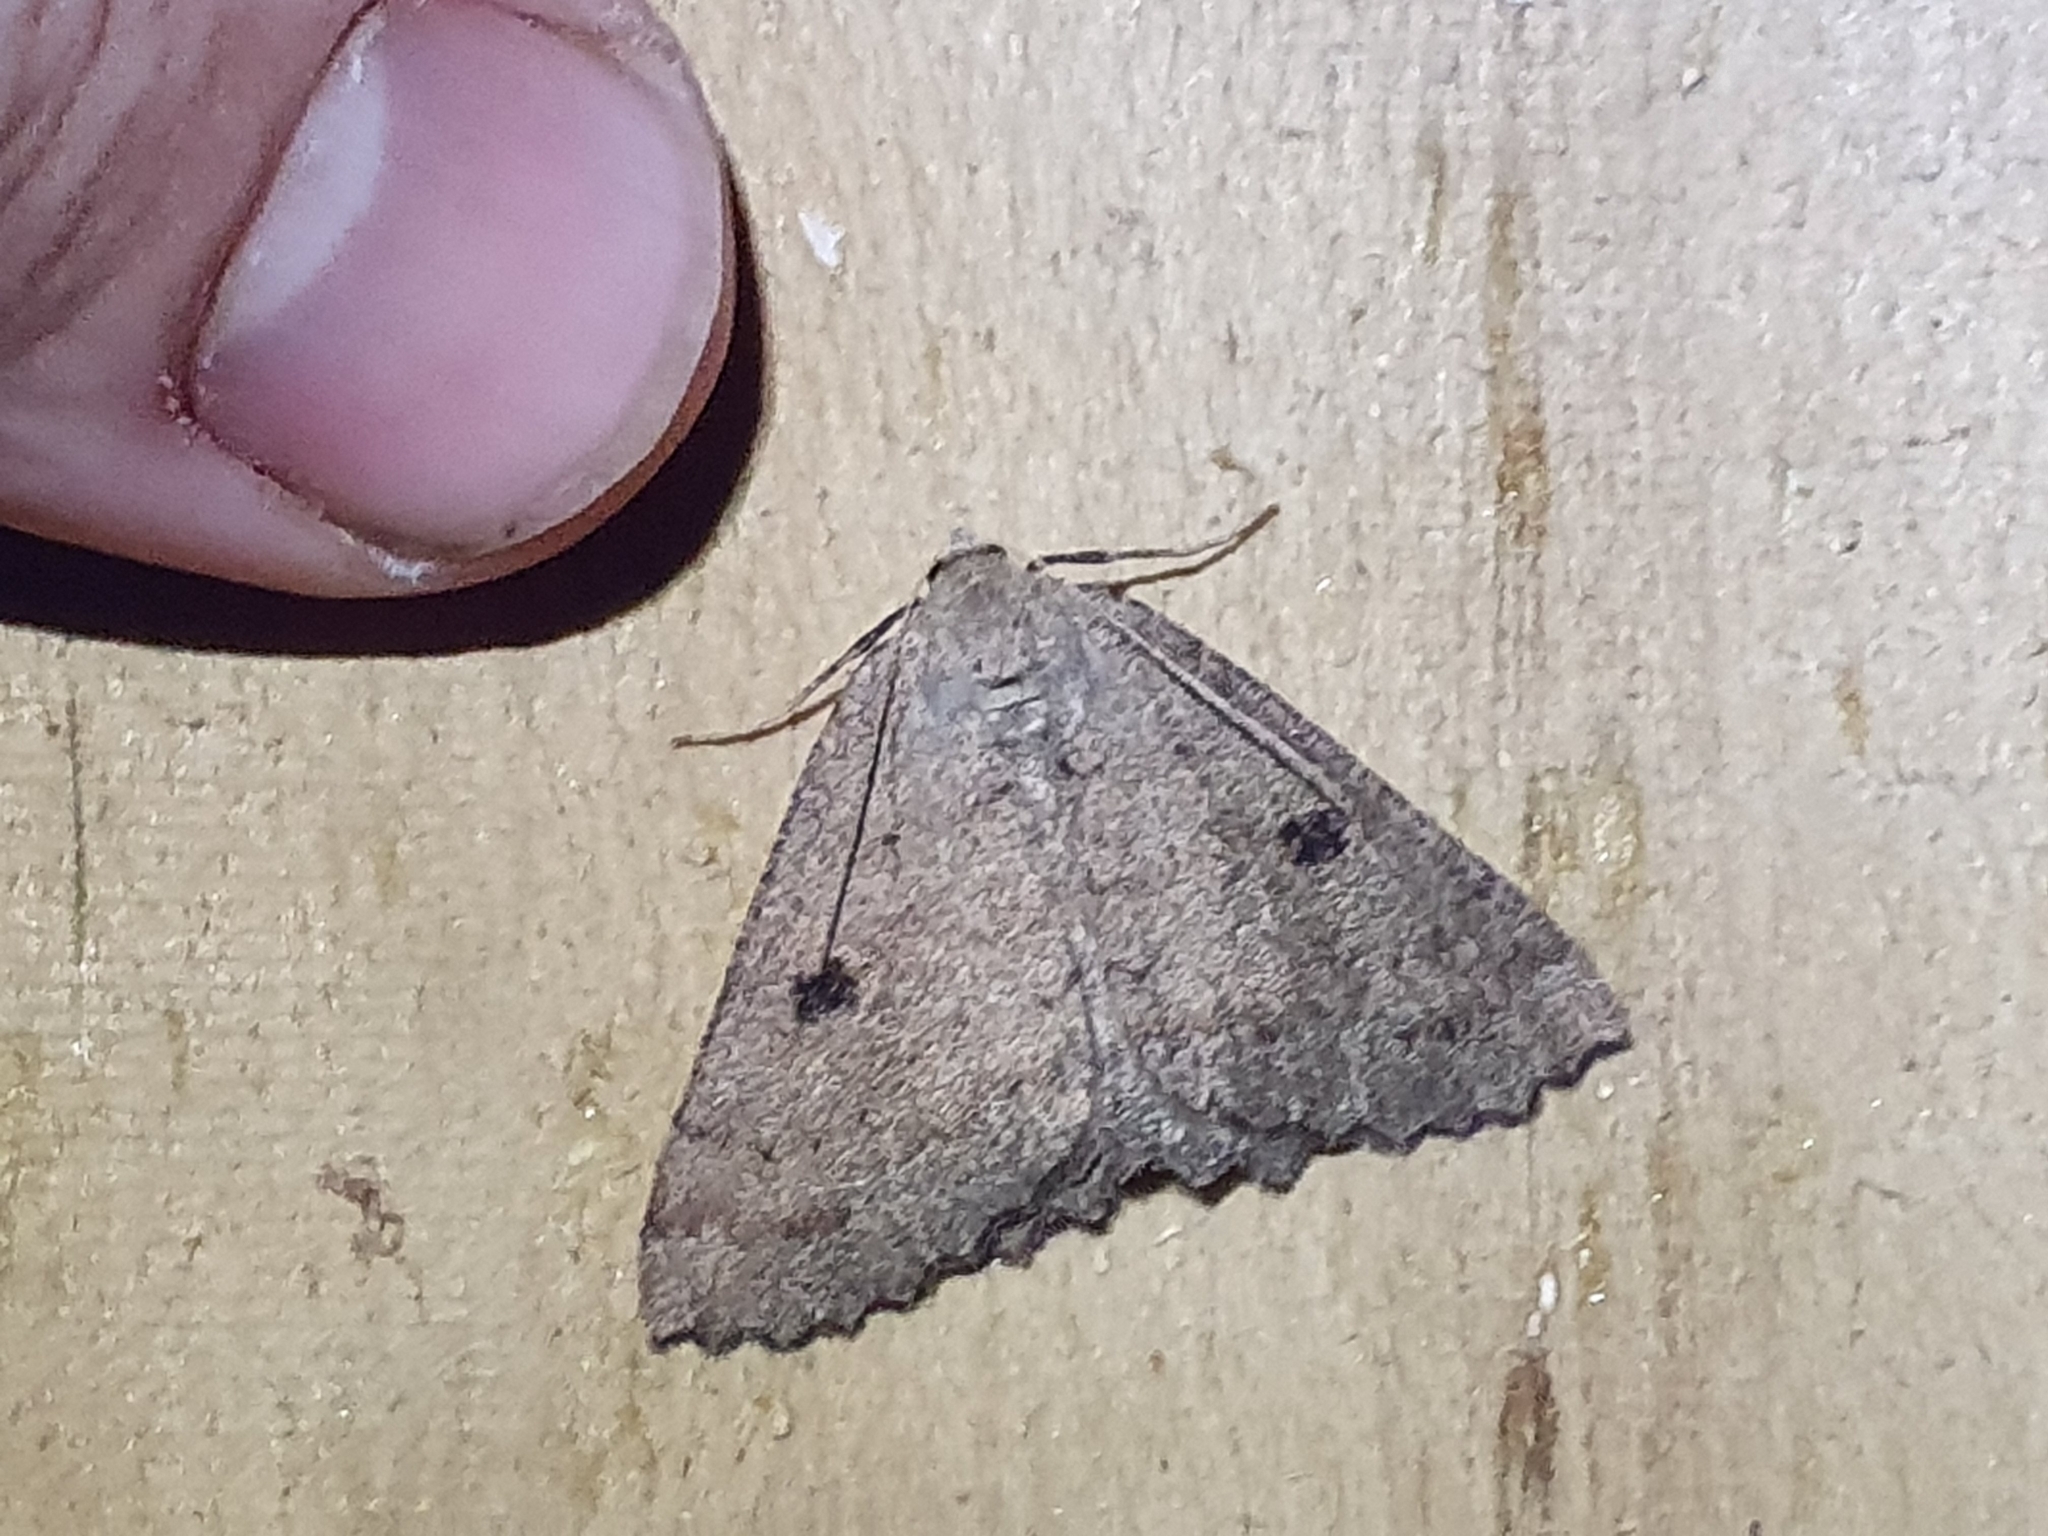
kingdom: Animalia
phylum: Arthropoda
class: Insecta
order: Lepidoptera
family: Geometridae
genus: Cleora
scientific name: Cleora scriptaria
